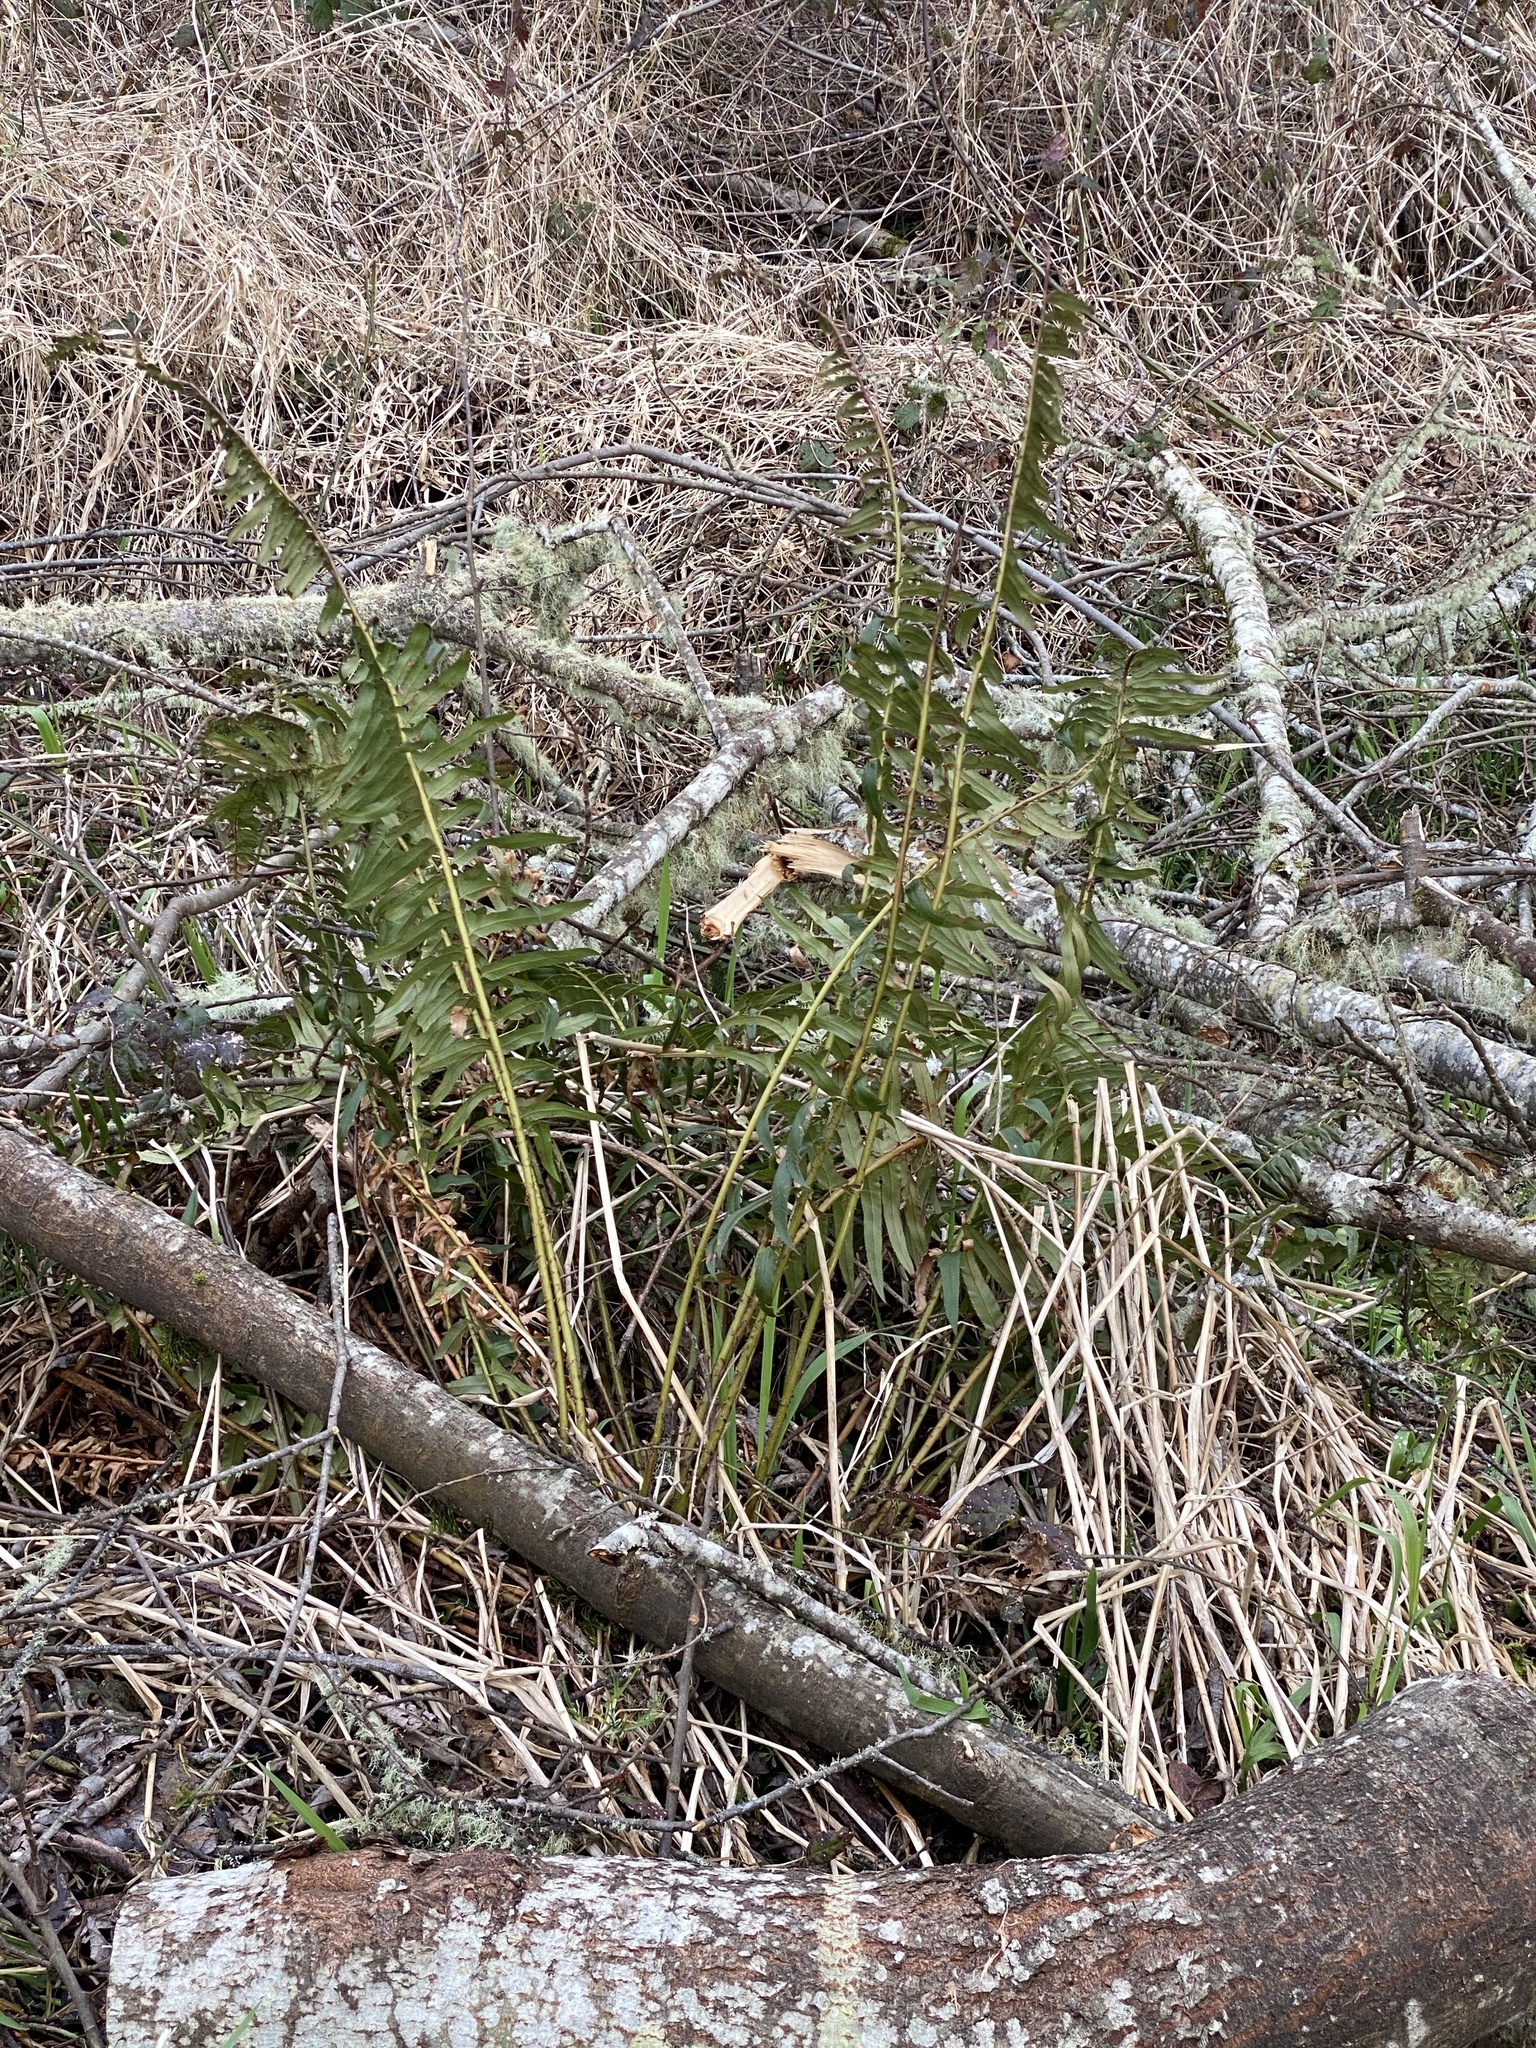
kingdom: Plantae
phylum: Tracheophyta
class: Polypodiopsida
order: Polypodiales
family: Dryopteridaceae
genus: Polystichum
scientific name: Polystichum munitum
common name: Western sword-fern
